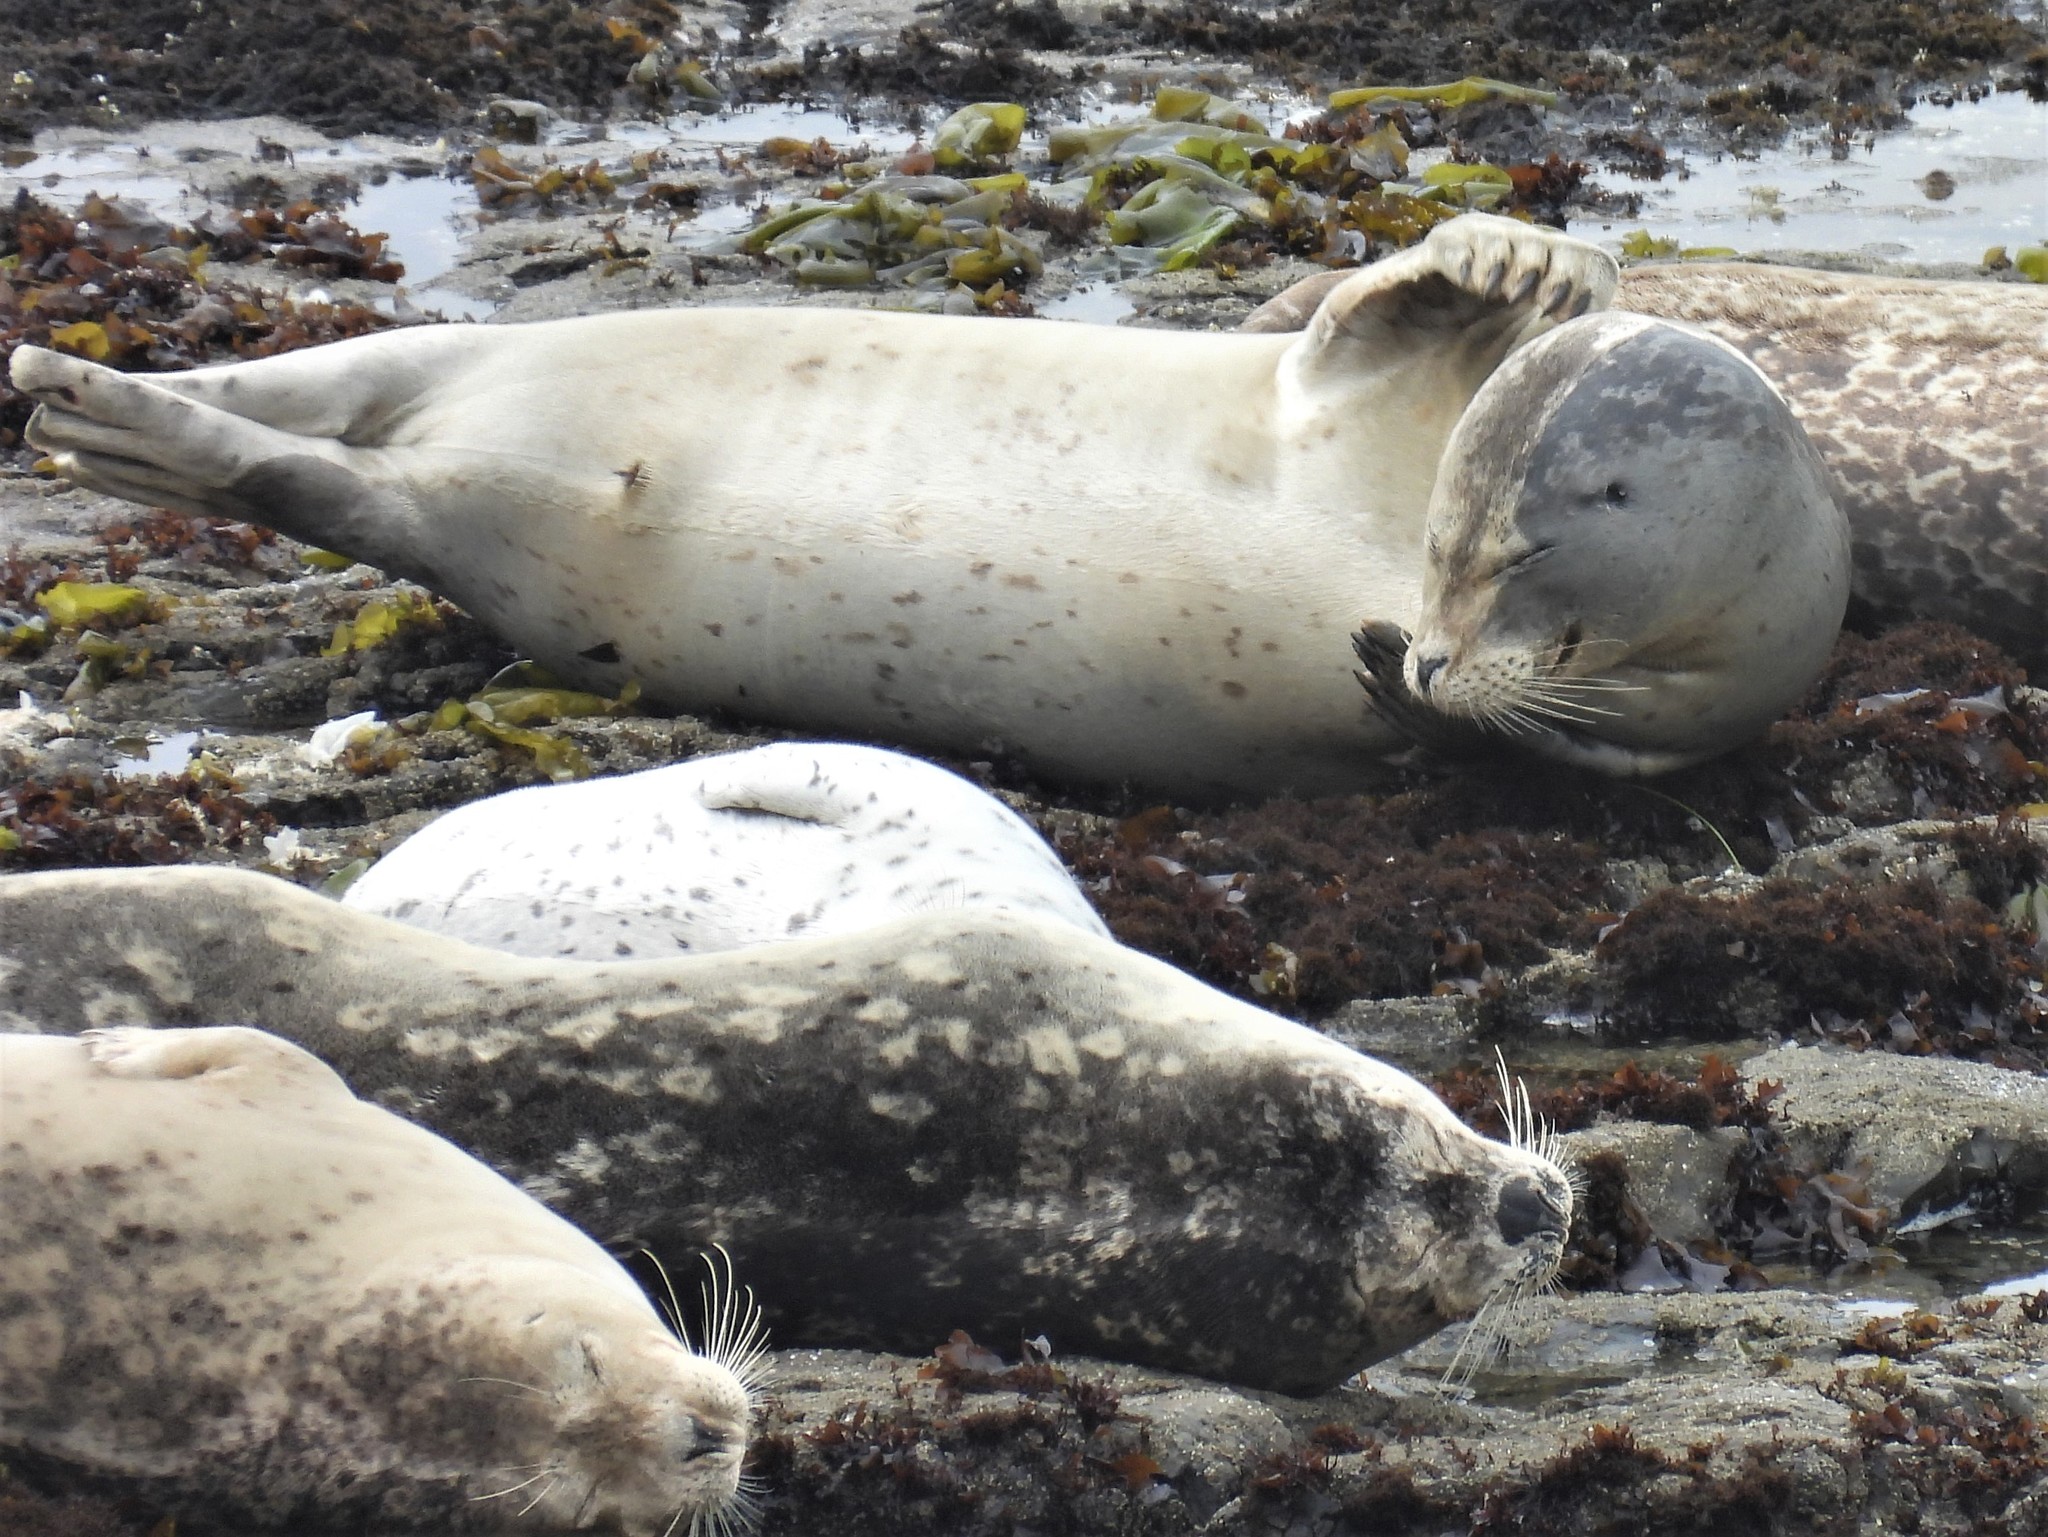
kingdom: Animalia
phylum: Chordata
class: Mammalia
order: Carnivora
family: Phocidae
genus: Phoca
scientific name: Phoca vitulina
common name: Harbor seal
